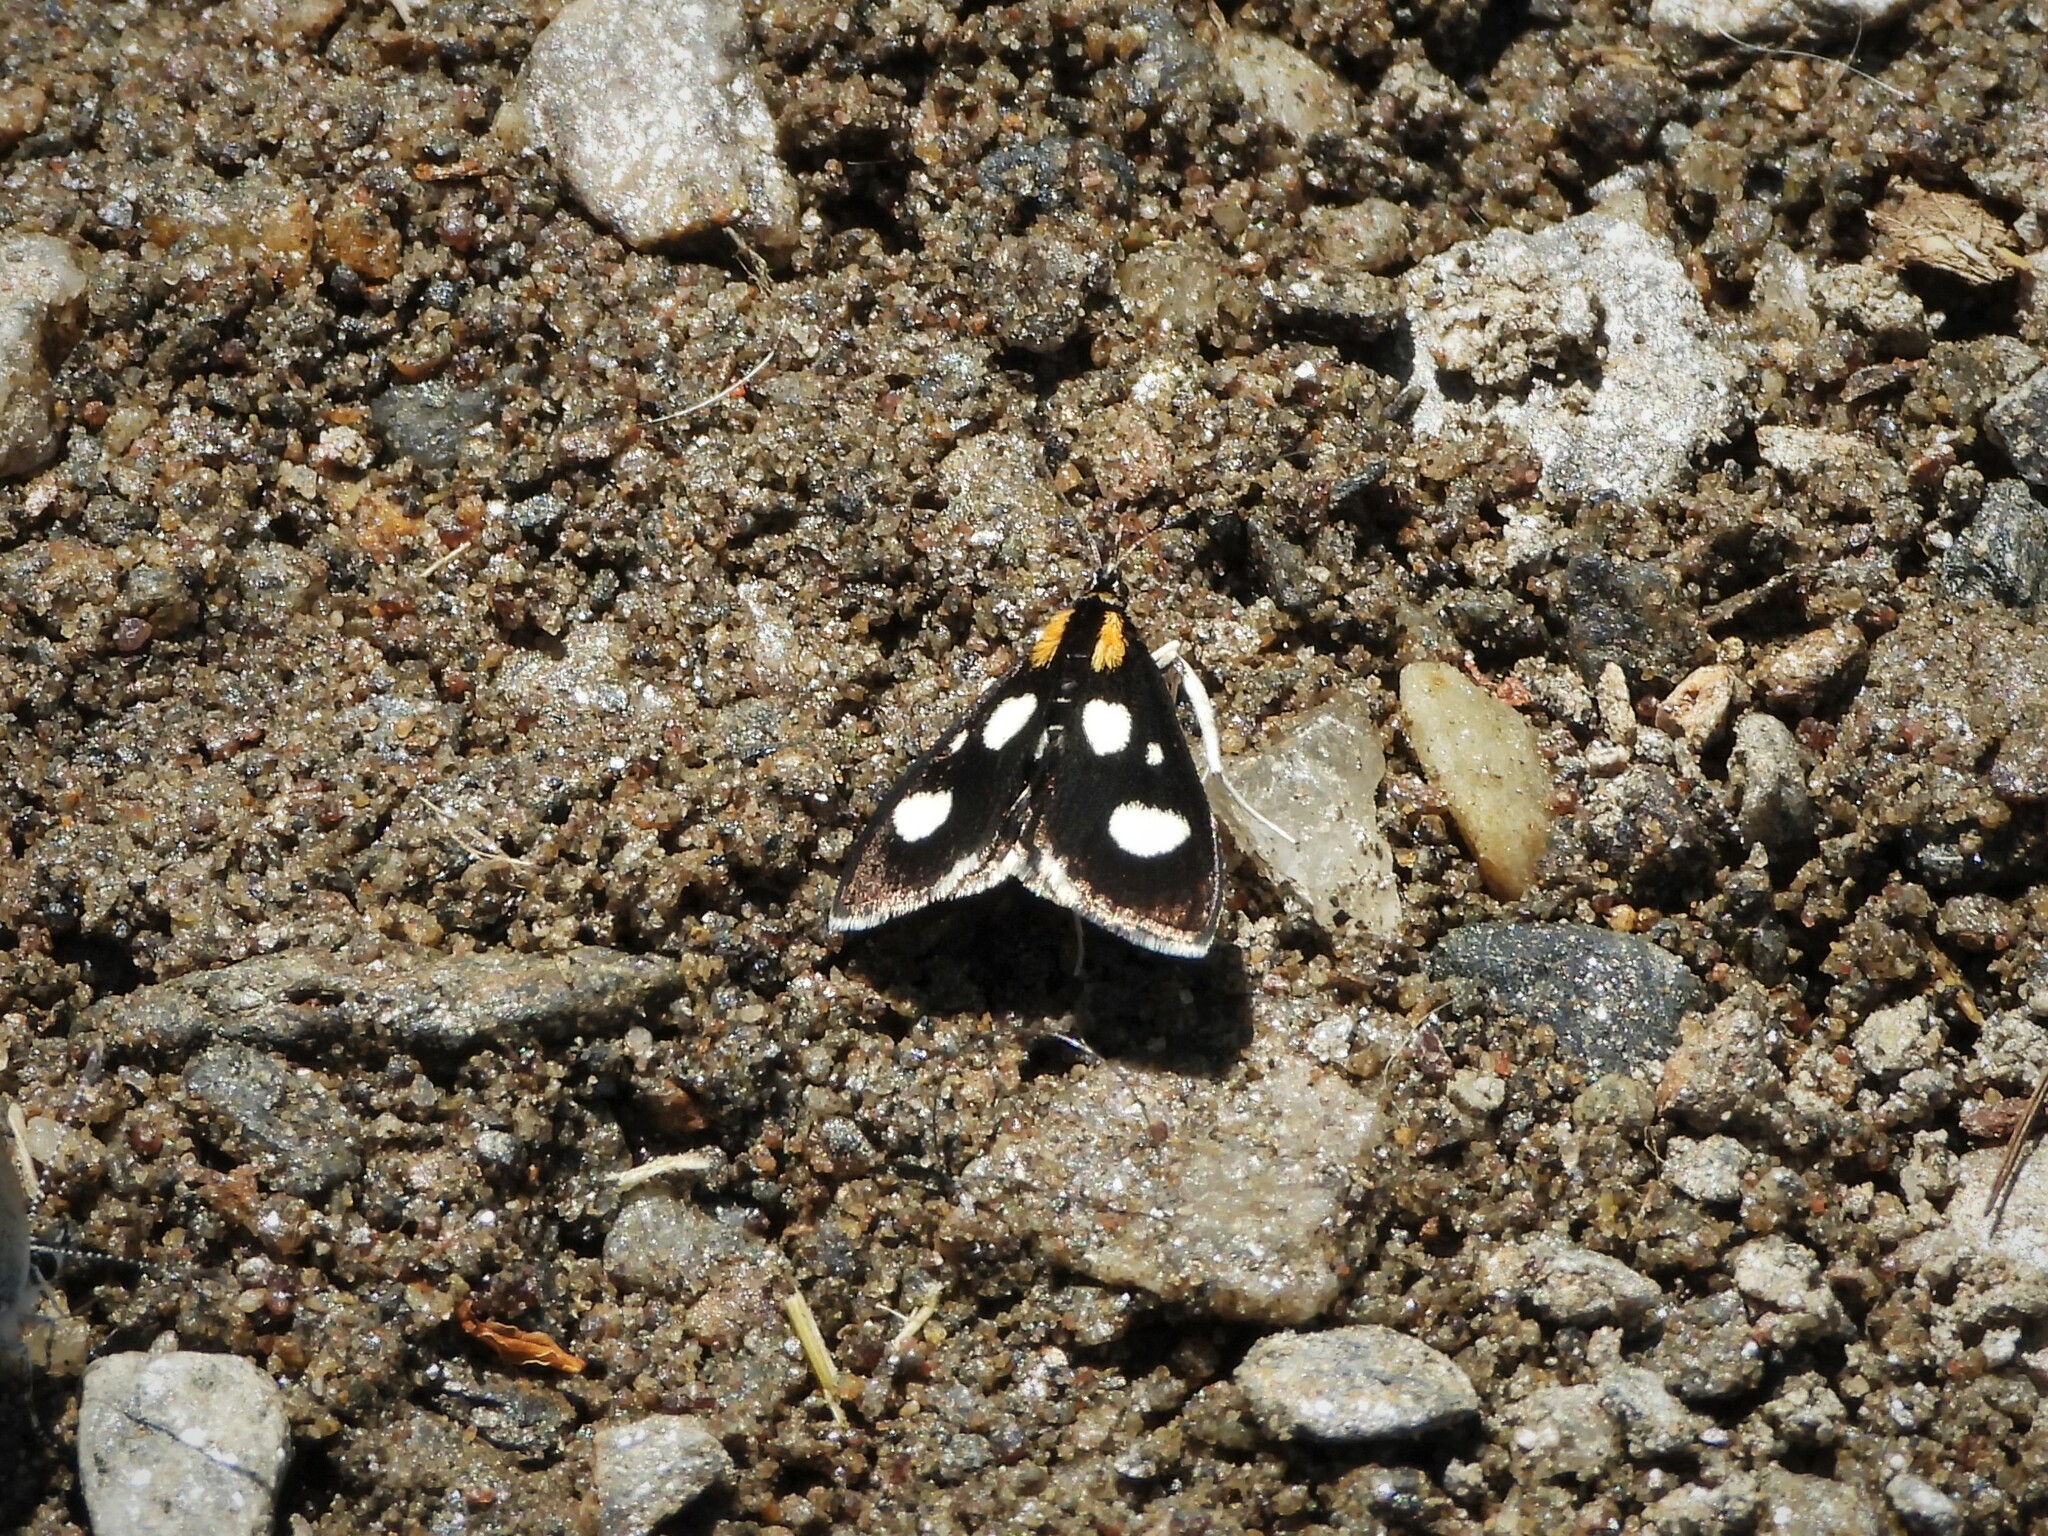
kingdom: Animalia
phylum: Arthropoda
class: Insecta
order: Lepidoptera
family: Crambidae
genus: Anania
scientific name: Anania funebris
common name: White-spotted sable moth
